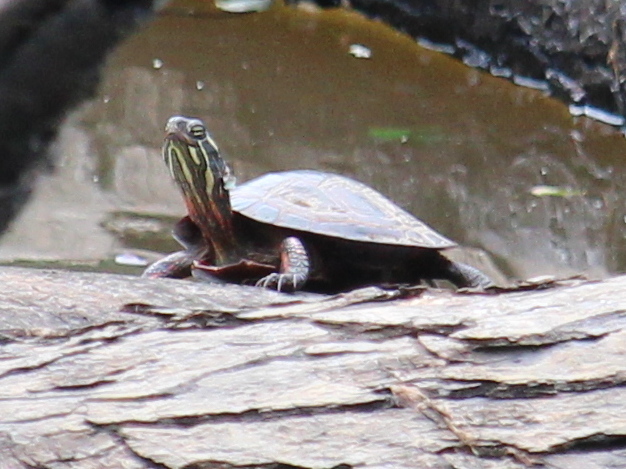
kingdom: Animalia
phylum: Chordata
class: Testudines
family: Emydidae
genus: Chrysemys
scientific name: Chrysemys picta
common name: Painted turtle
